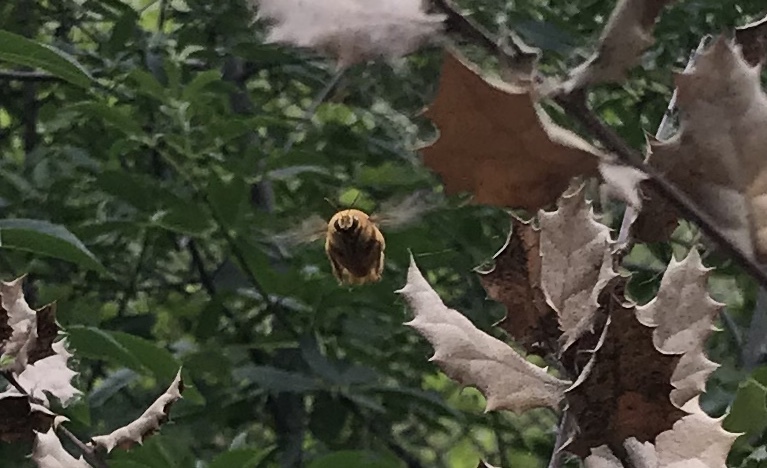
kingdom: Animalia
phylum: Arthropoda
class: Insecta
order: Hymenoptera
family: Apidae
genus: Xylocopa
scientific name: Xylocopa sonorina
